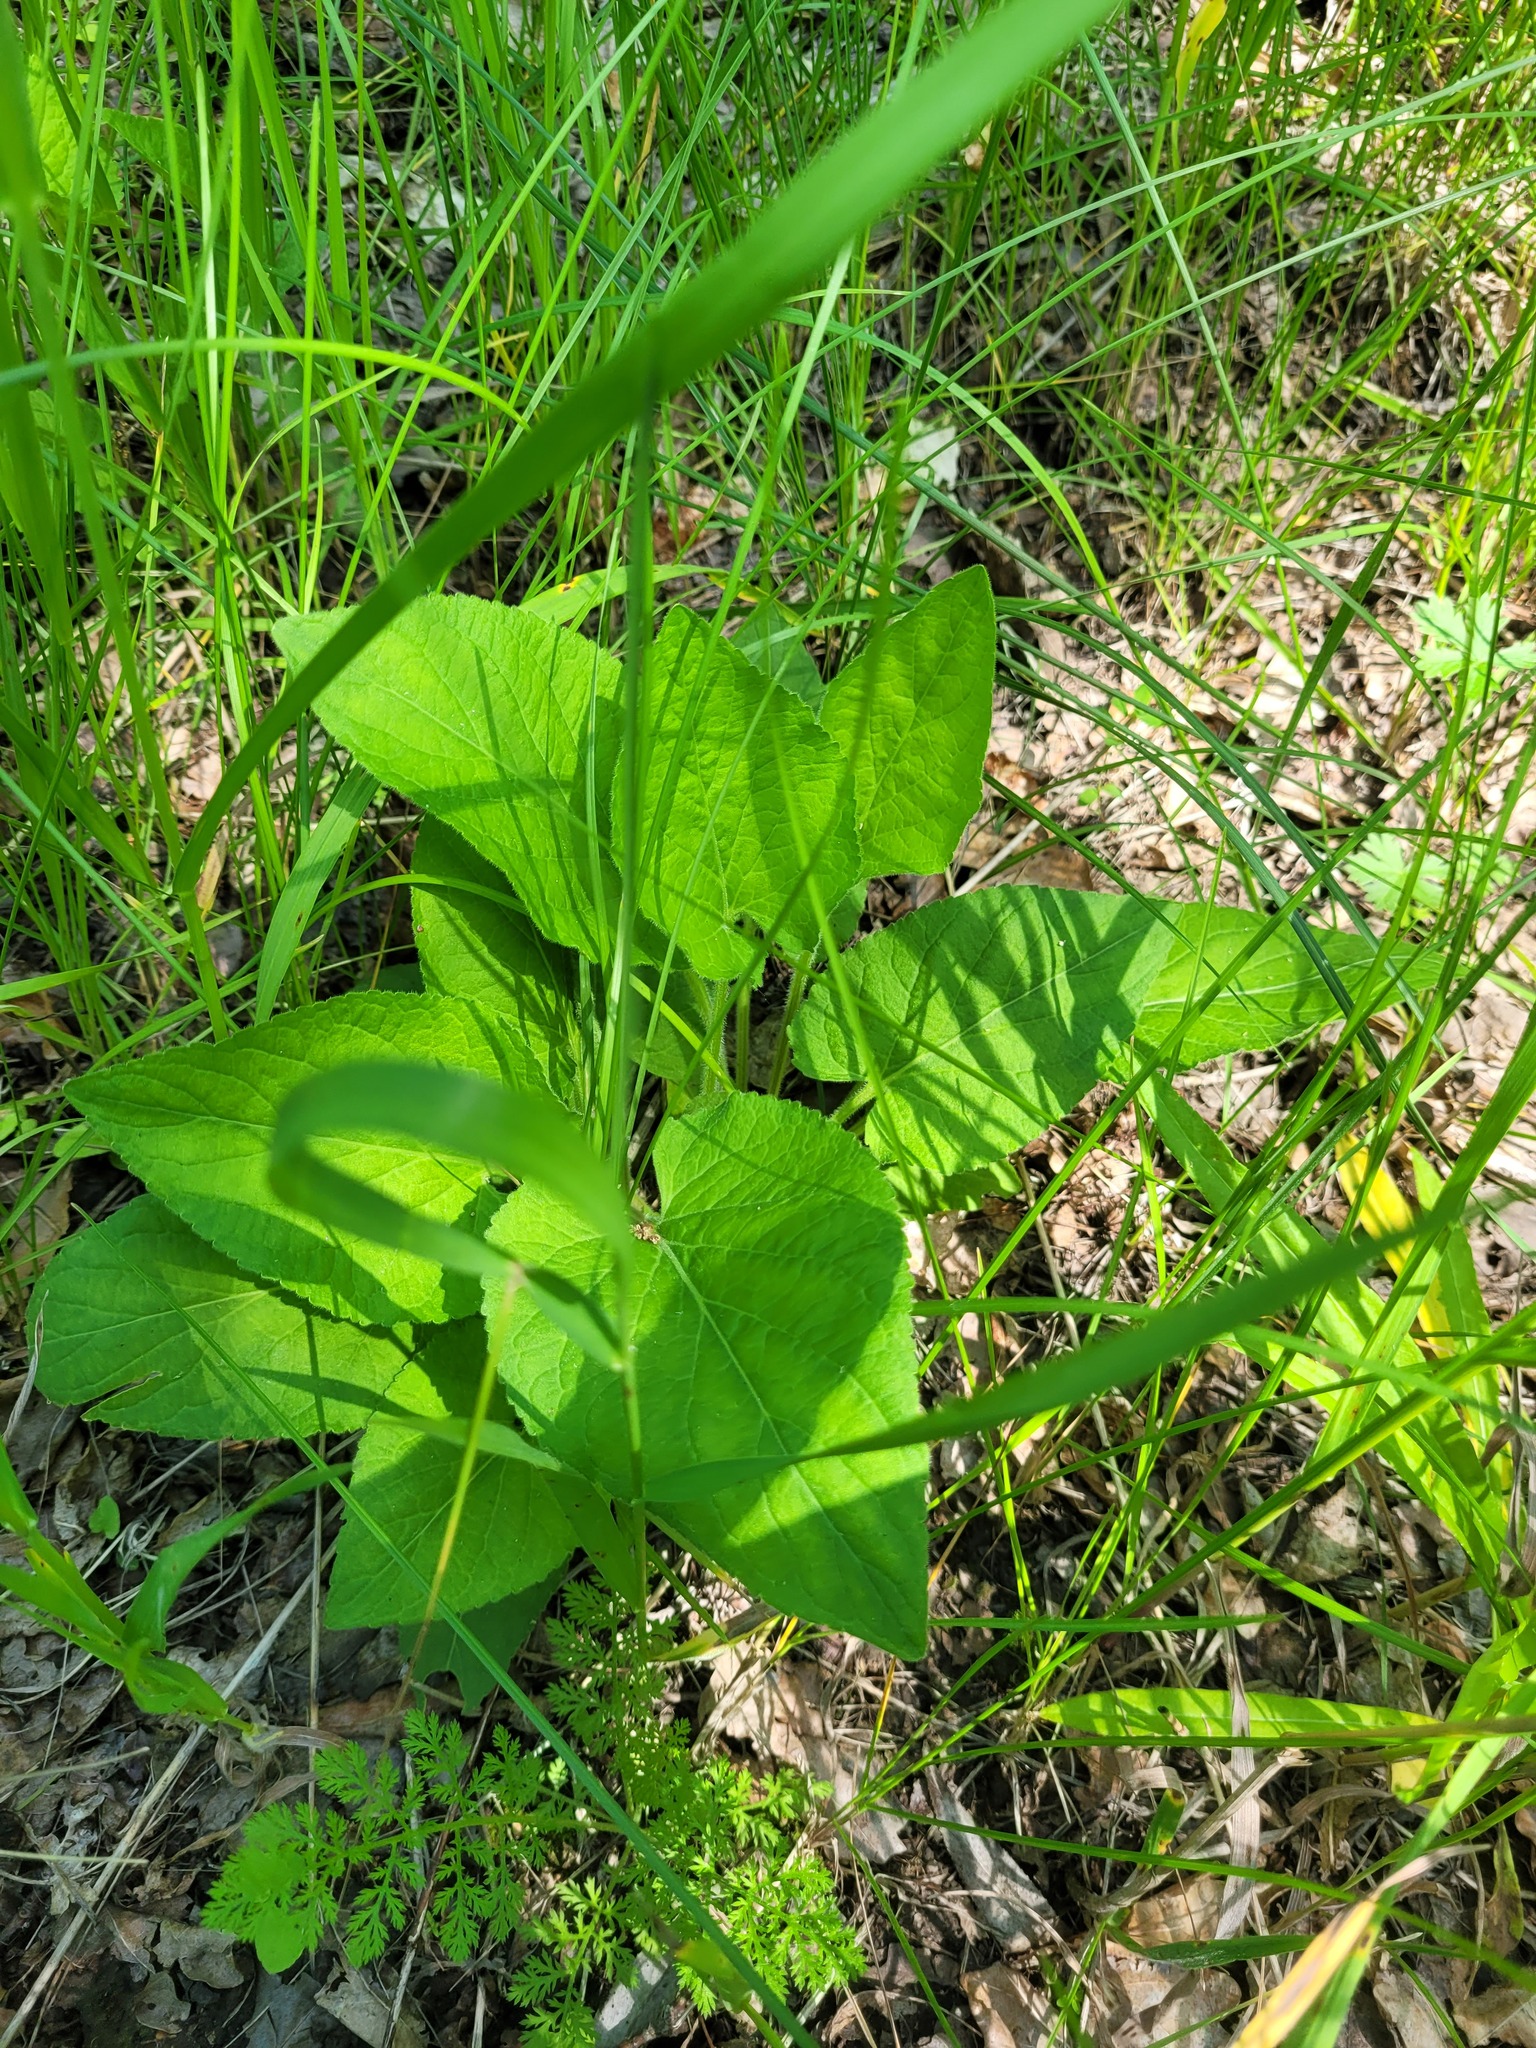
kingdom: Plantae
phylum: Tracheophyta
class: Magnoliopsida
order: Malpighiales
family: Violaceae
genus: Viola
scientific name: Viola hirta
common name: Hairy violet
